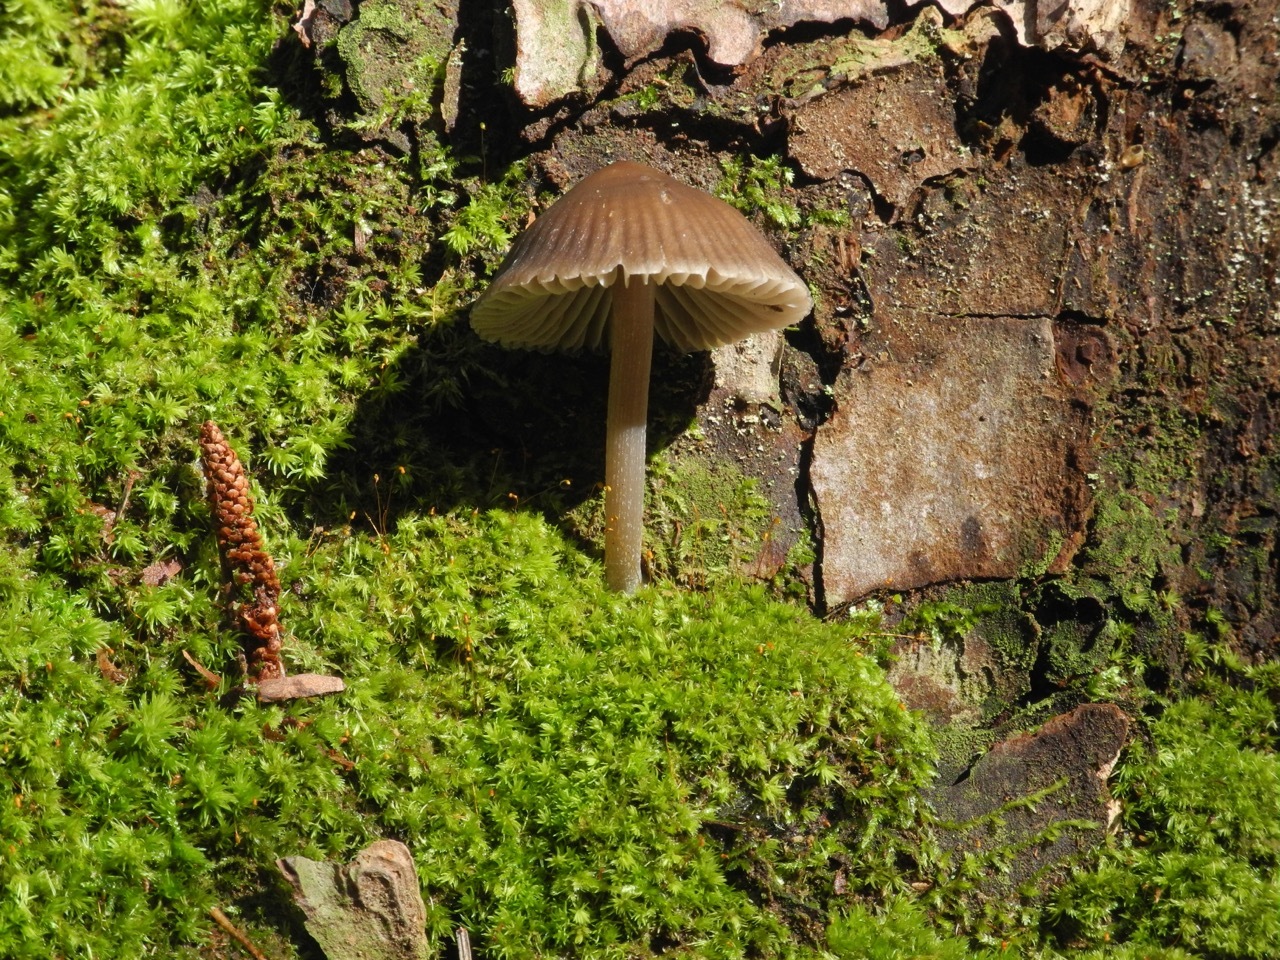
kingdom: Fungi
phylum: Basidiomycota
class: Agaricomycetes
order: Agaricales
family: Mycenaceae
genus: Mycena
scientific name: Mycena stipata
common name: Clustered pine bonnet
